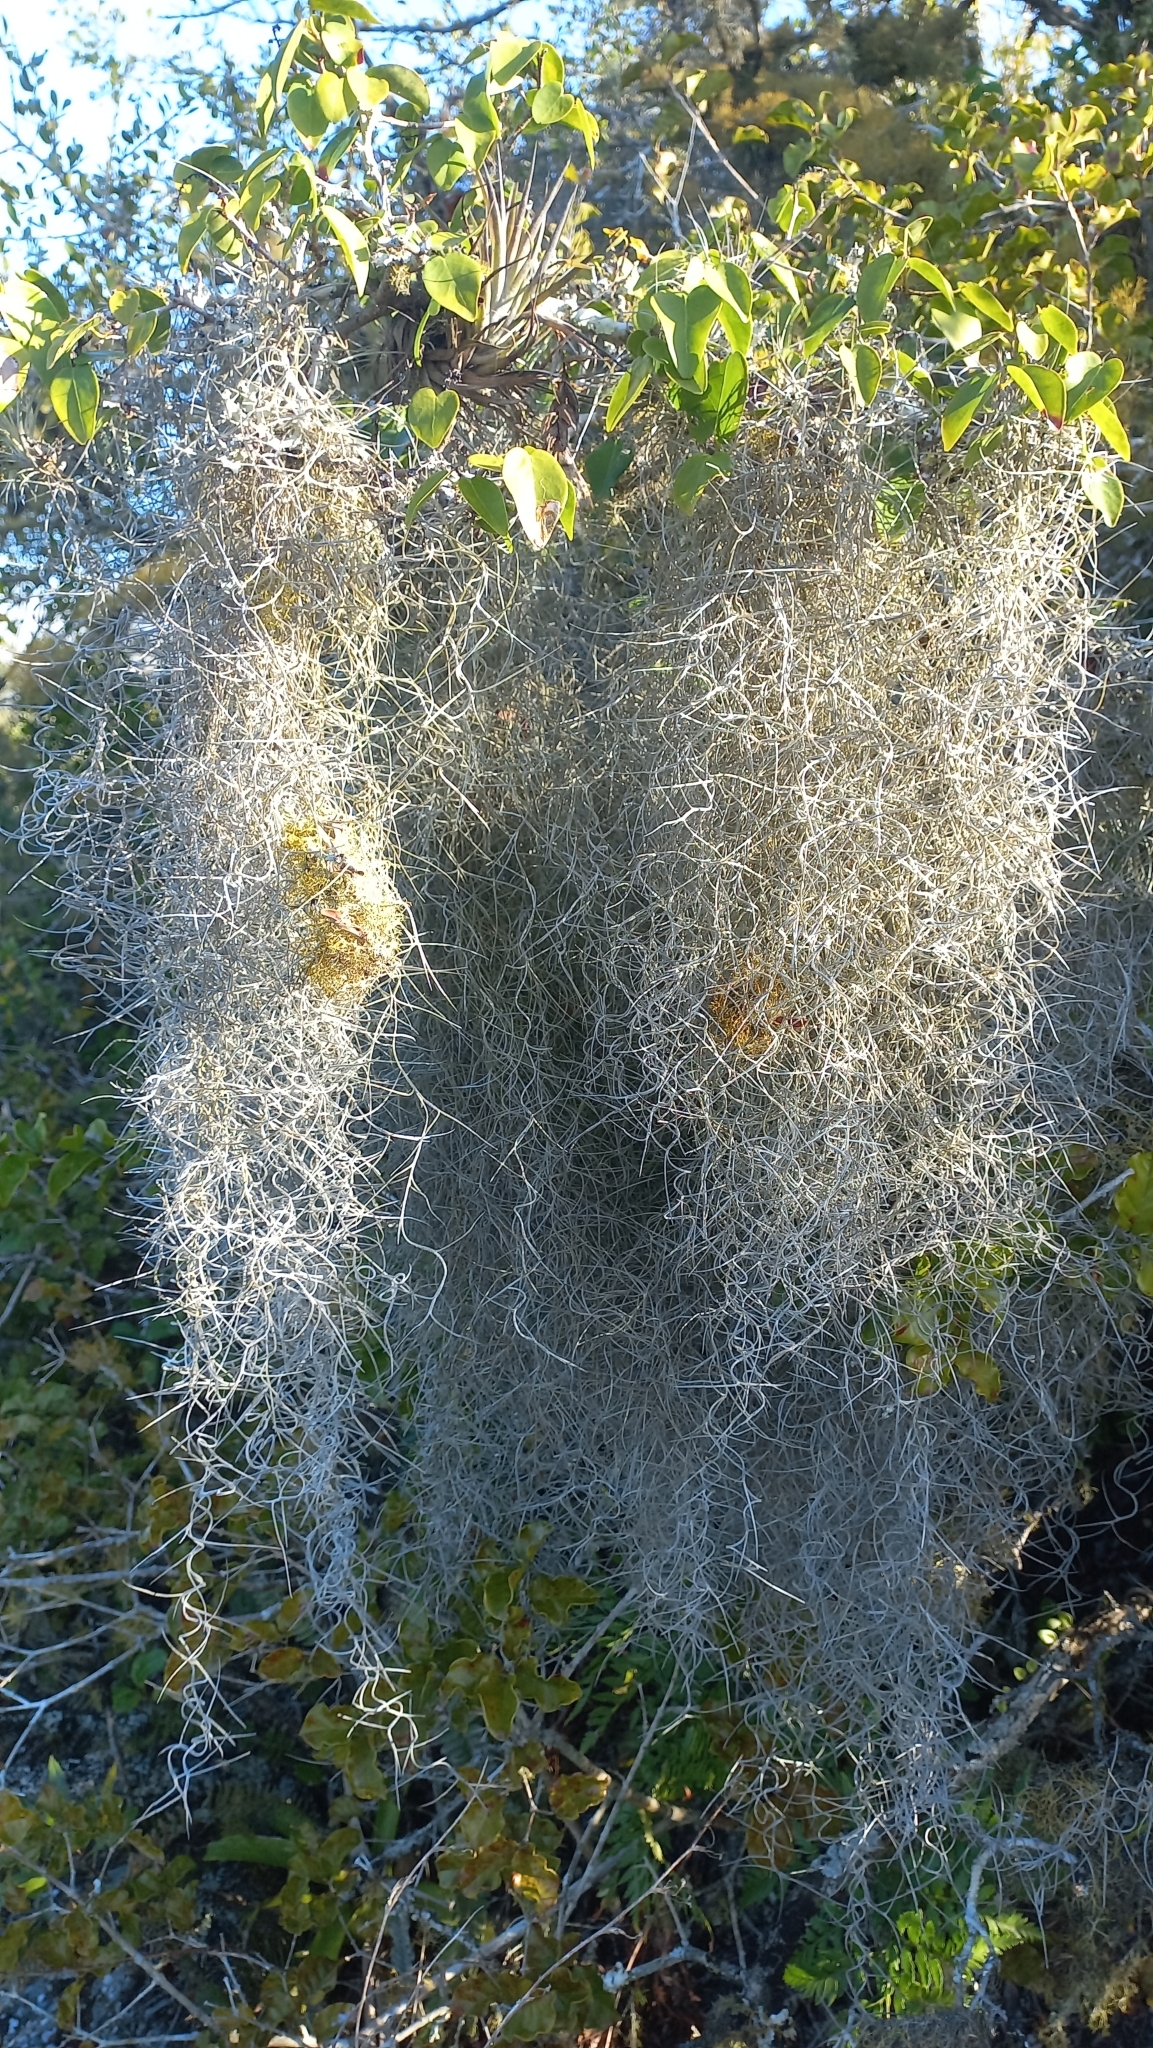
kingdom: Plantae
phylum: Tracheophyta
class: Liliopsida
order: Poales
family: Bromeliaceae
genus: Tillandsia
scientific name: Tillandsia usneoides
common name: Spanish moss
